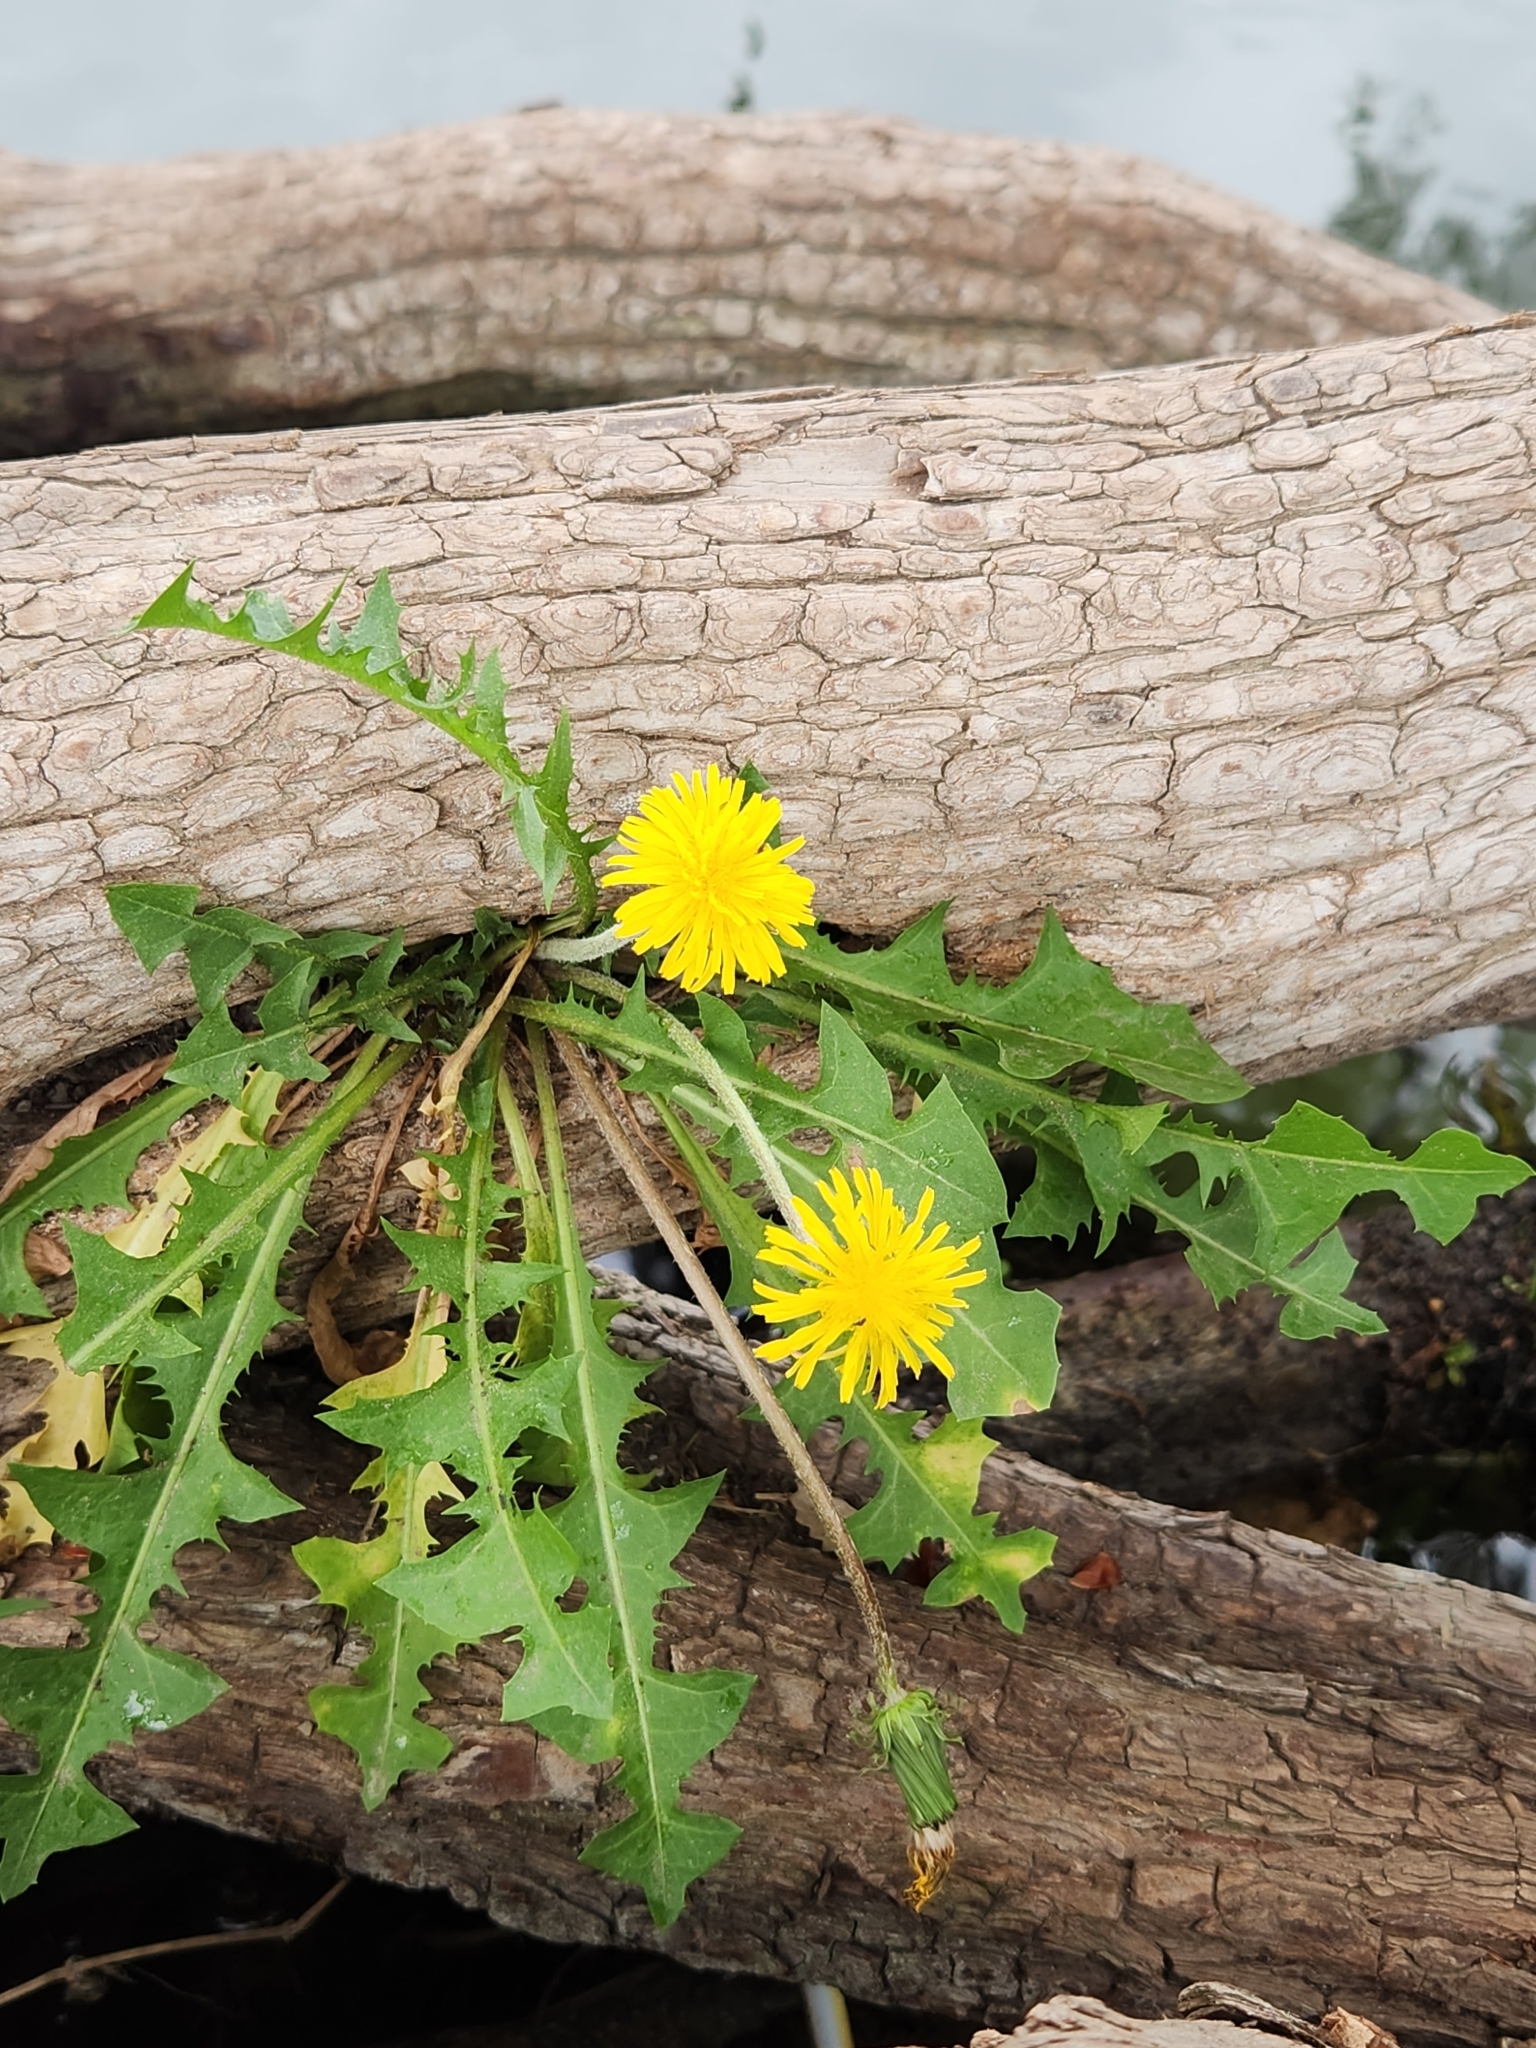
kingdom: Plantae
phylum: Tracheophyta
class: Magnoliopsida
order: Asterales
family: Asteraceae
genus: Taraxacum
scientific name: Taraxacum officinale
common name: Common dandelion
